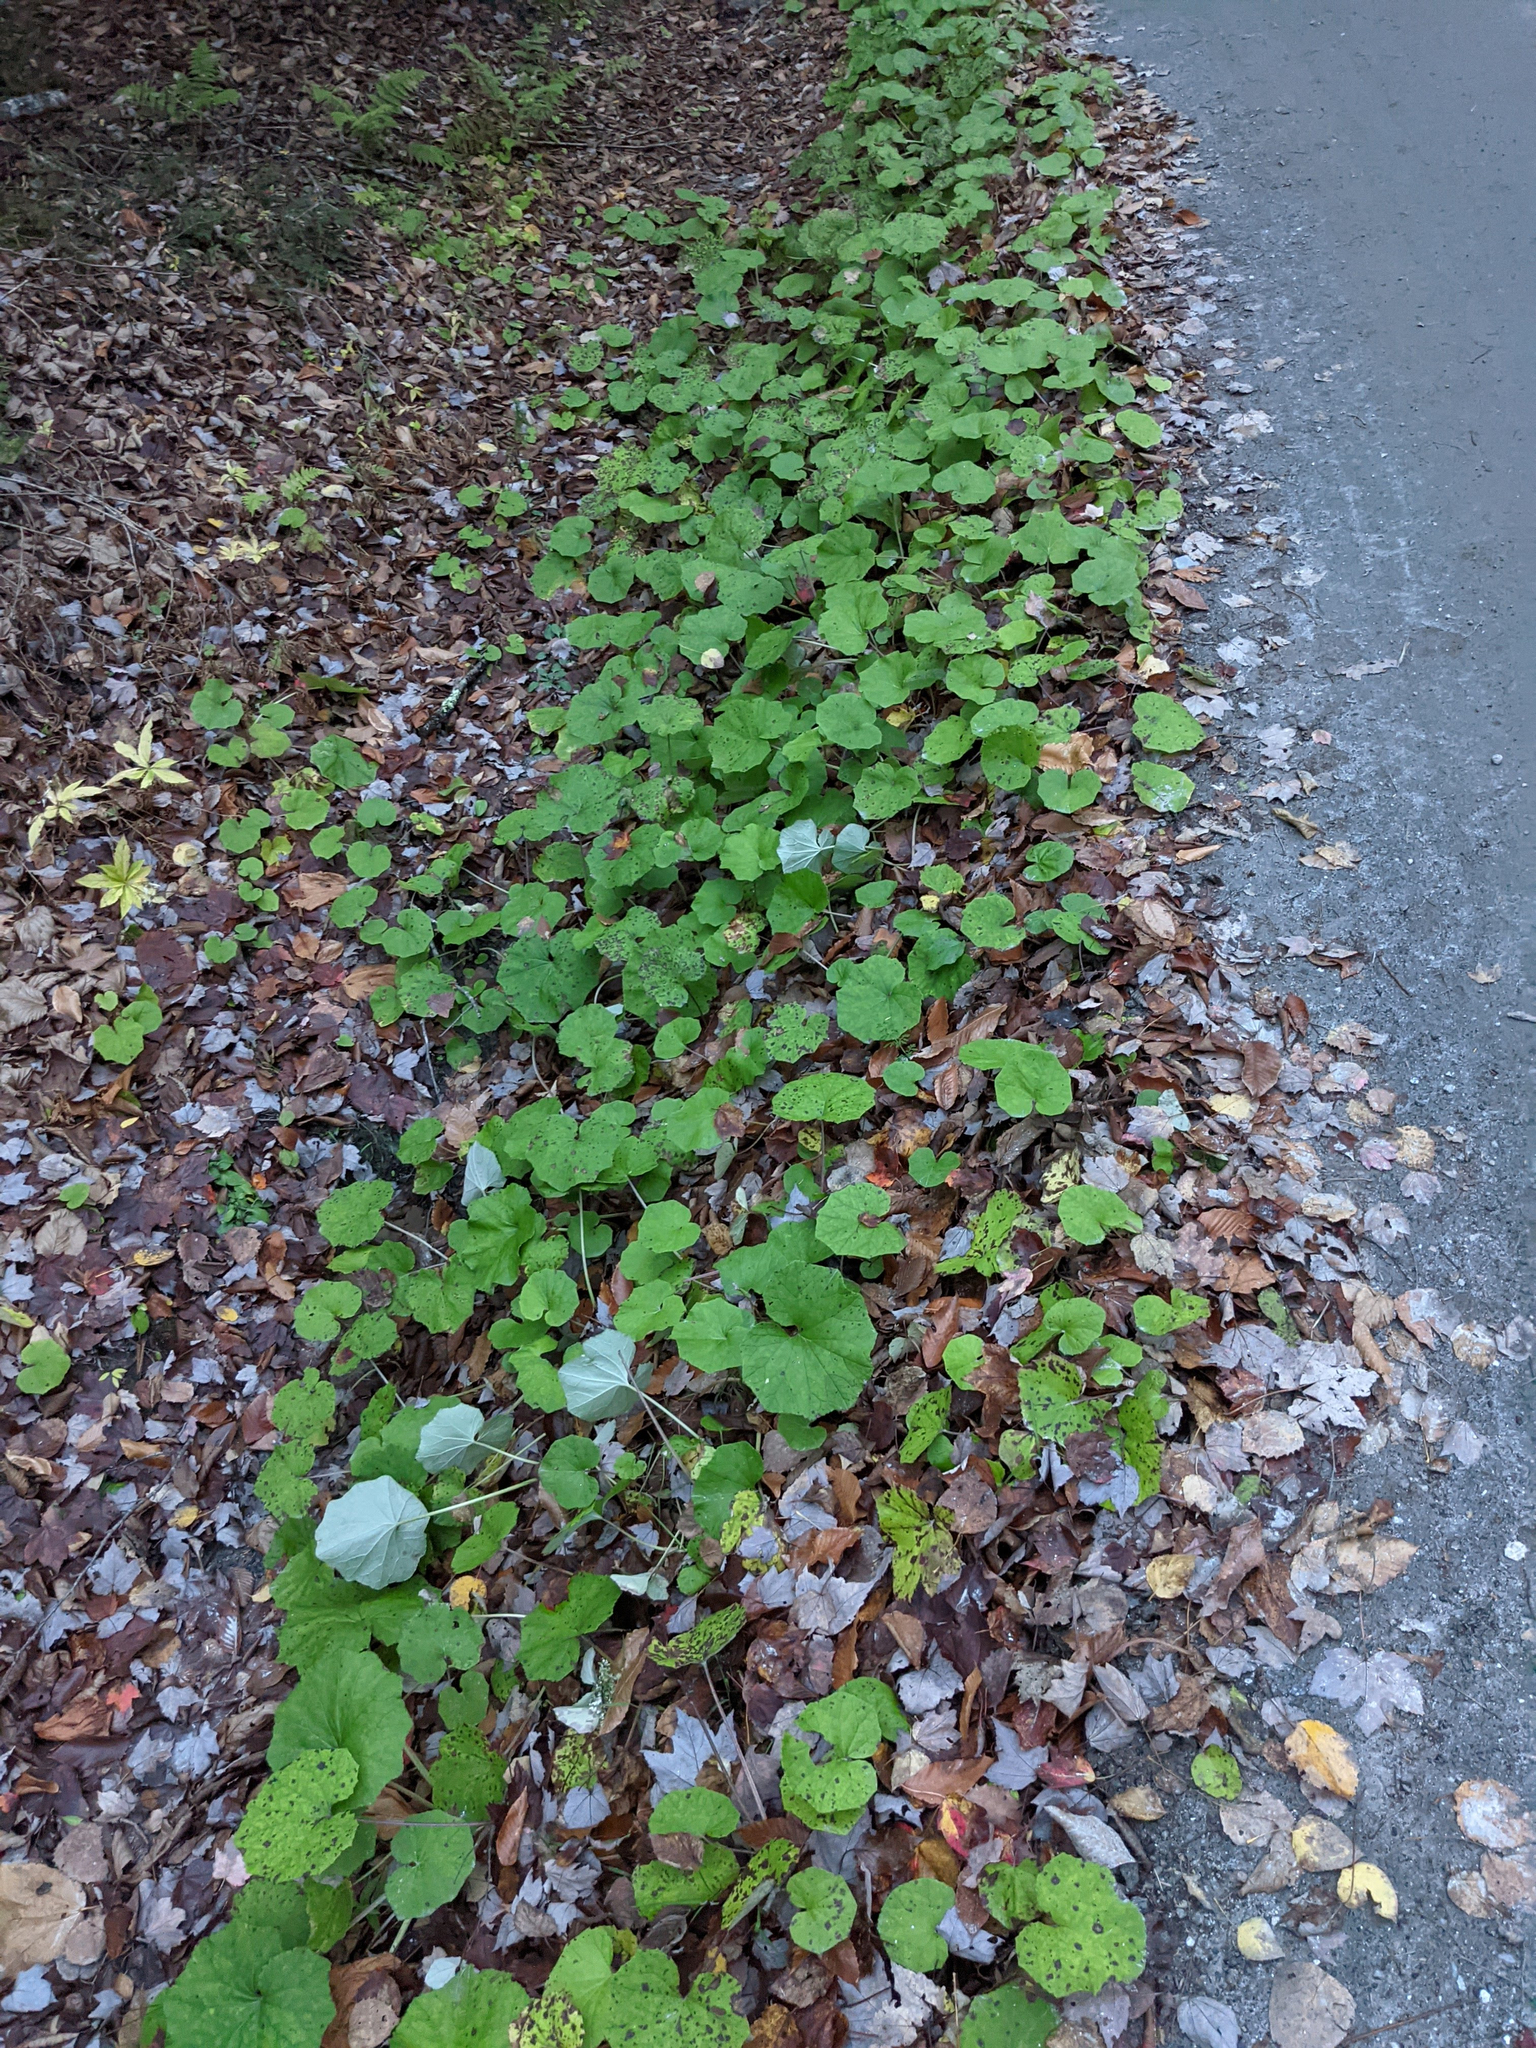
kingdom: Plantae
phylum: Tracheophyta
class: Magnoliopsida
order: Asterales
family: Asteraceae
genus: Tussilago
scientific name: Tussilago farfara
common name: Coltsfoot
